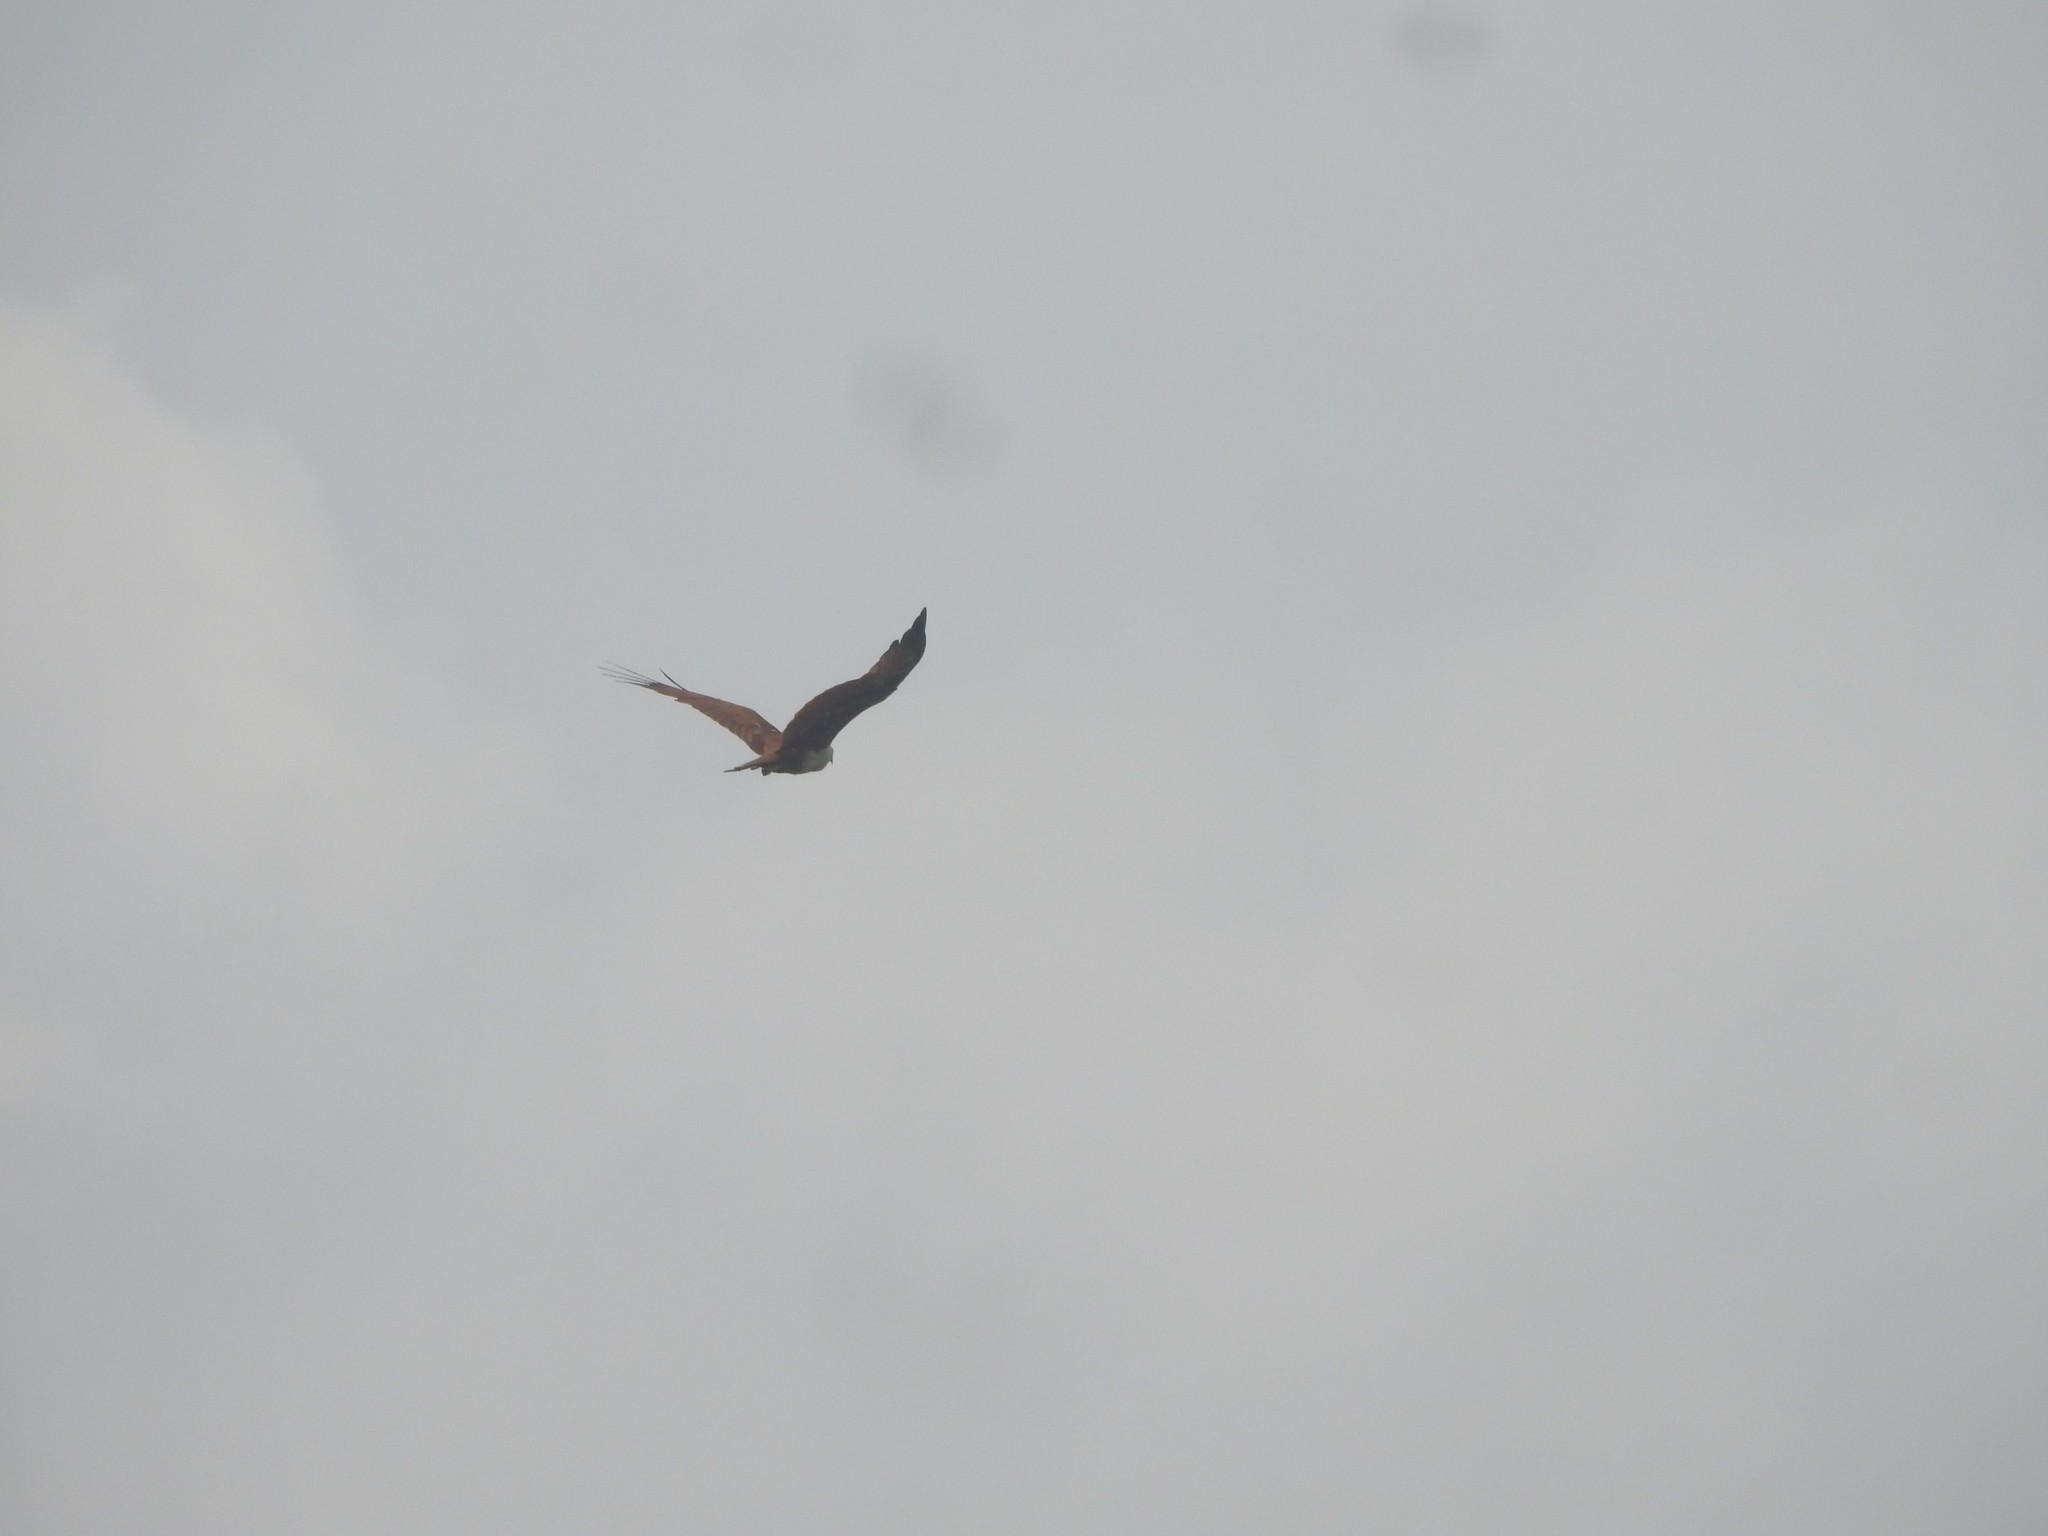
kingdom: Animalia
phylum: Chordata
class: Aves
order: Accipitriformes
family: Accipitridae
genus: Haliastur
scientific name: Haliastur indus
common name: Brahminy kite
